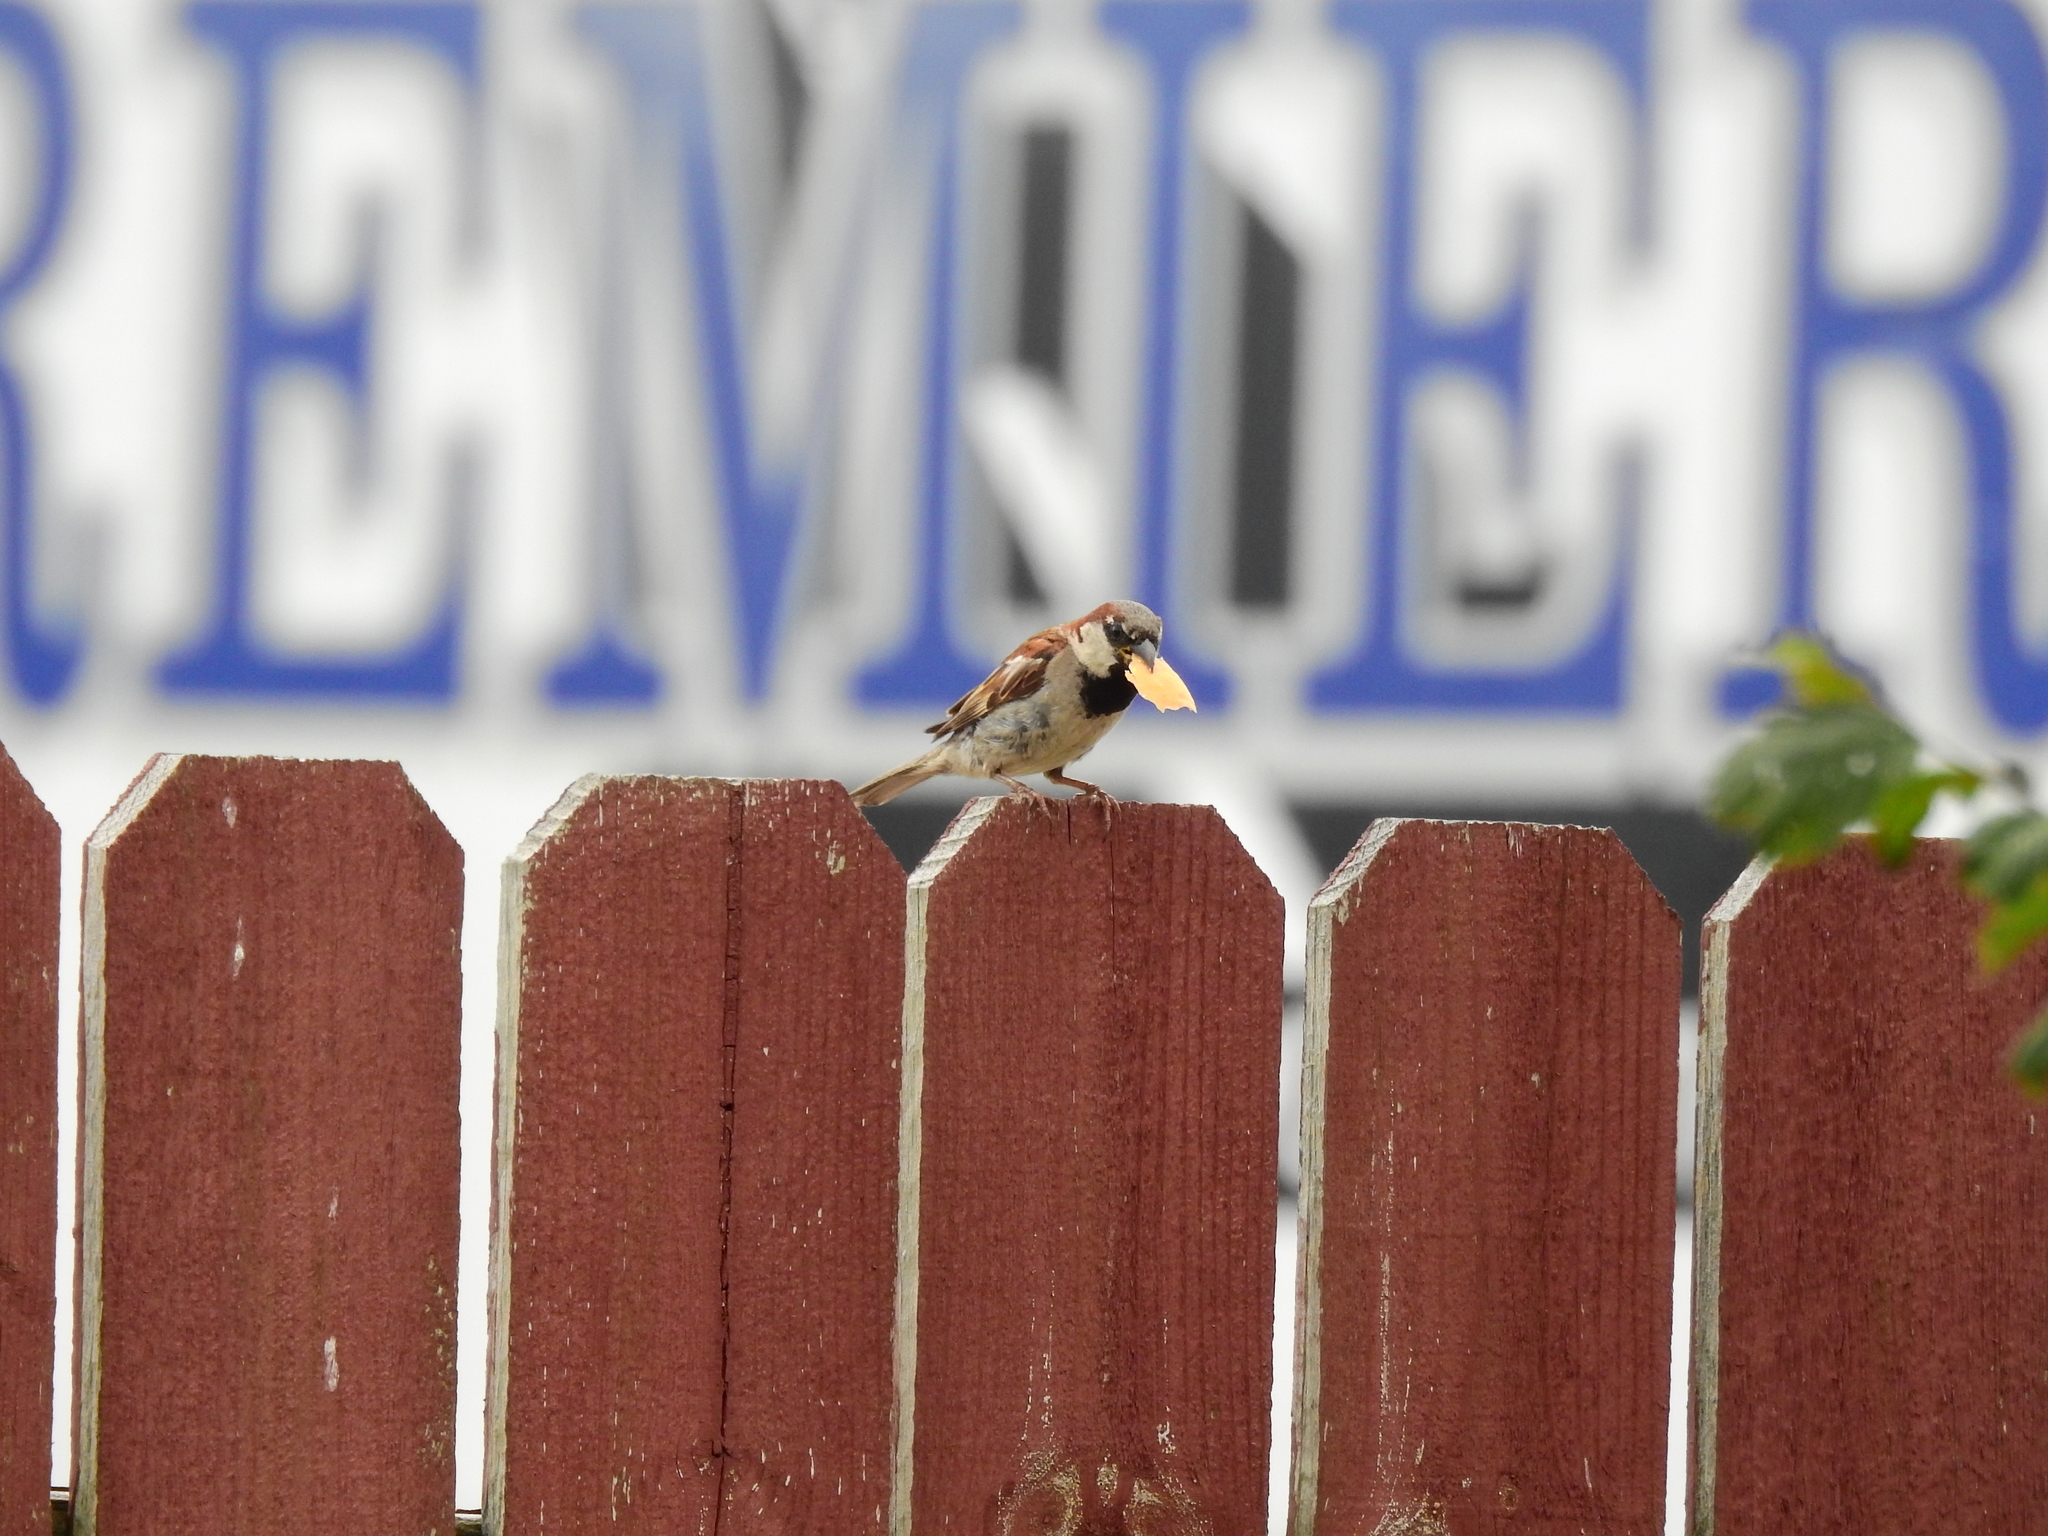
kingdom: Animalia
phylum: Chordata
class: Aves
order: Passeriformes
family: Passeridae
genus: Passer
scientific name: Passer domesticus
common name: House sparrow
